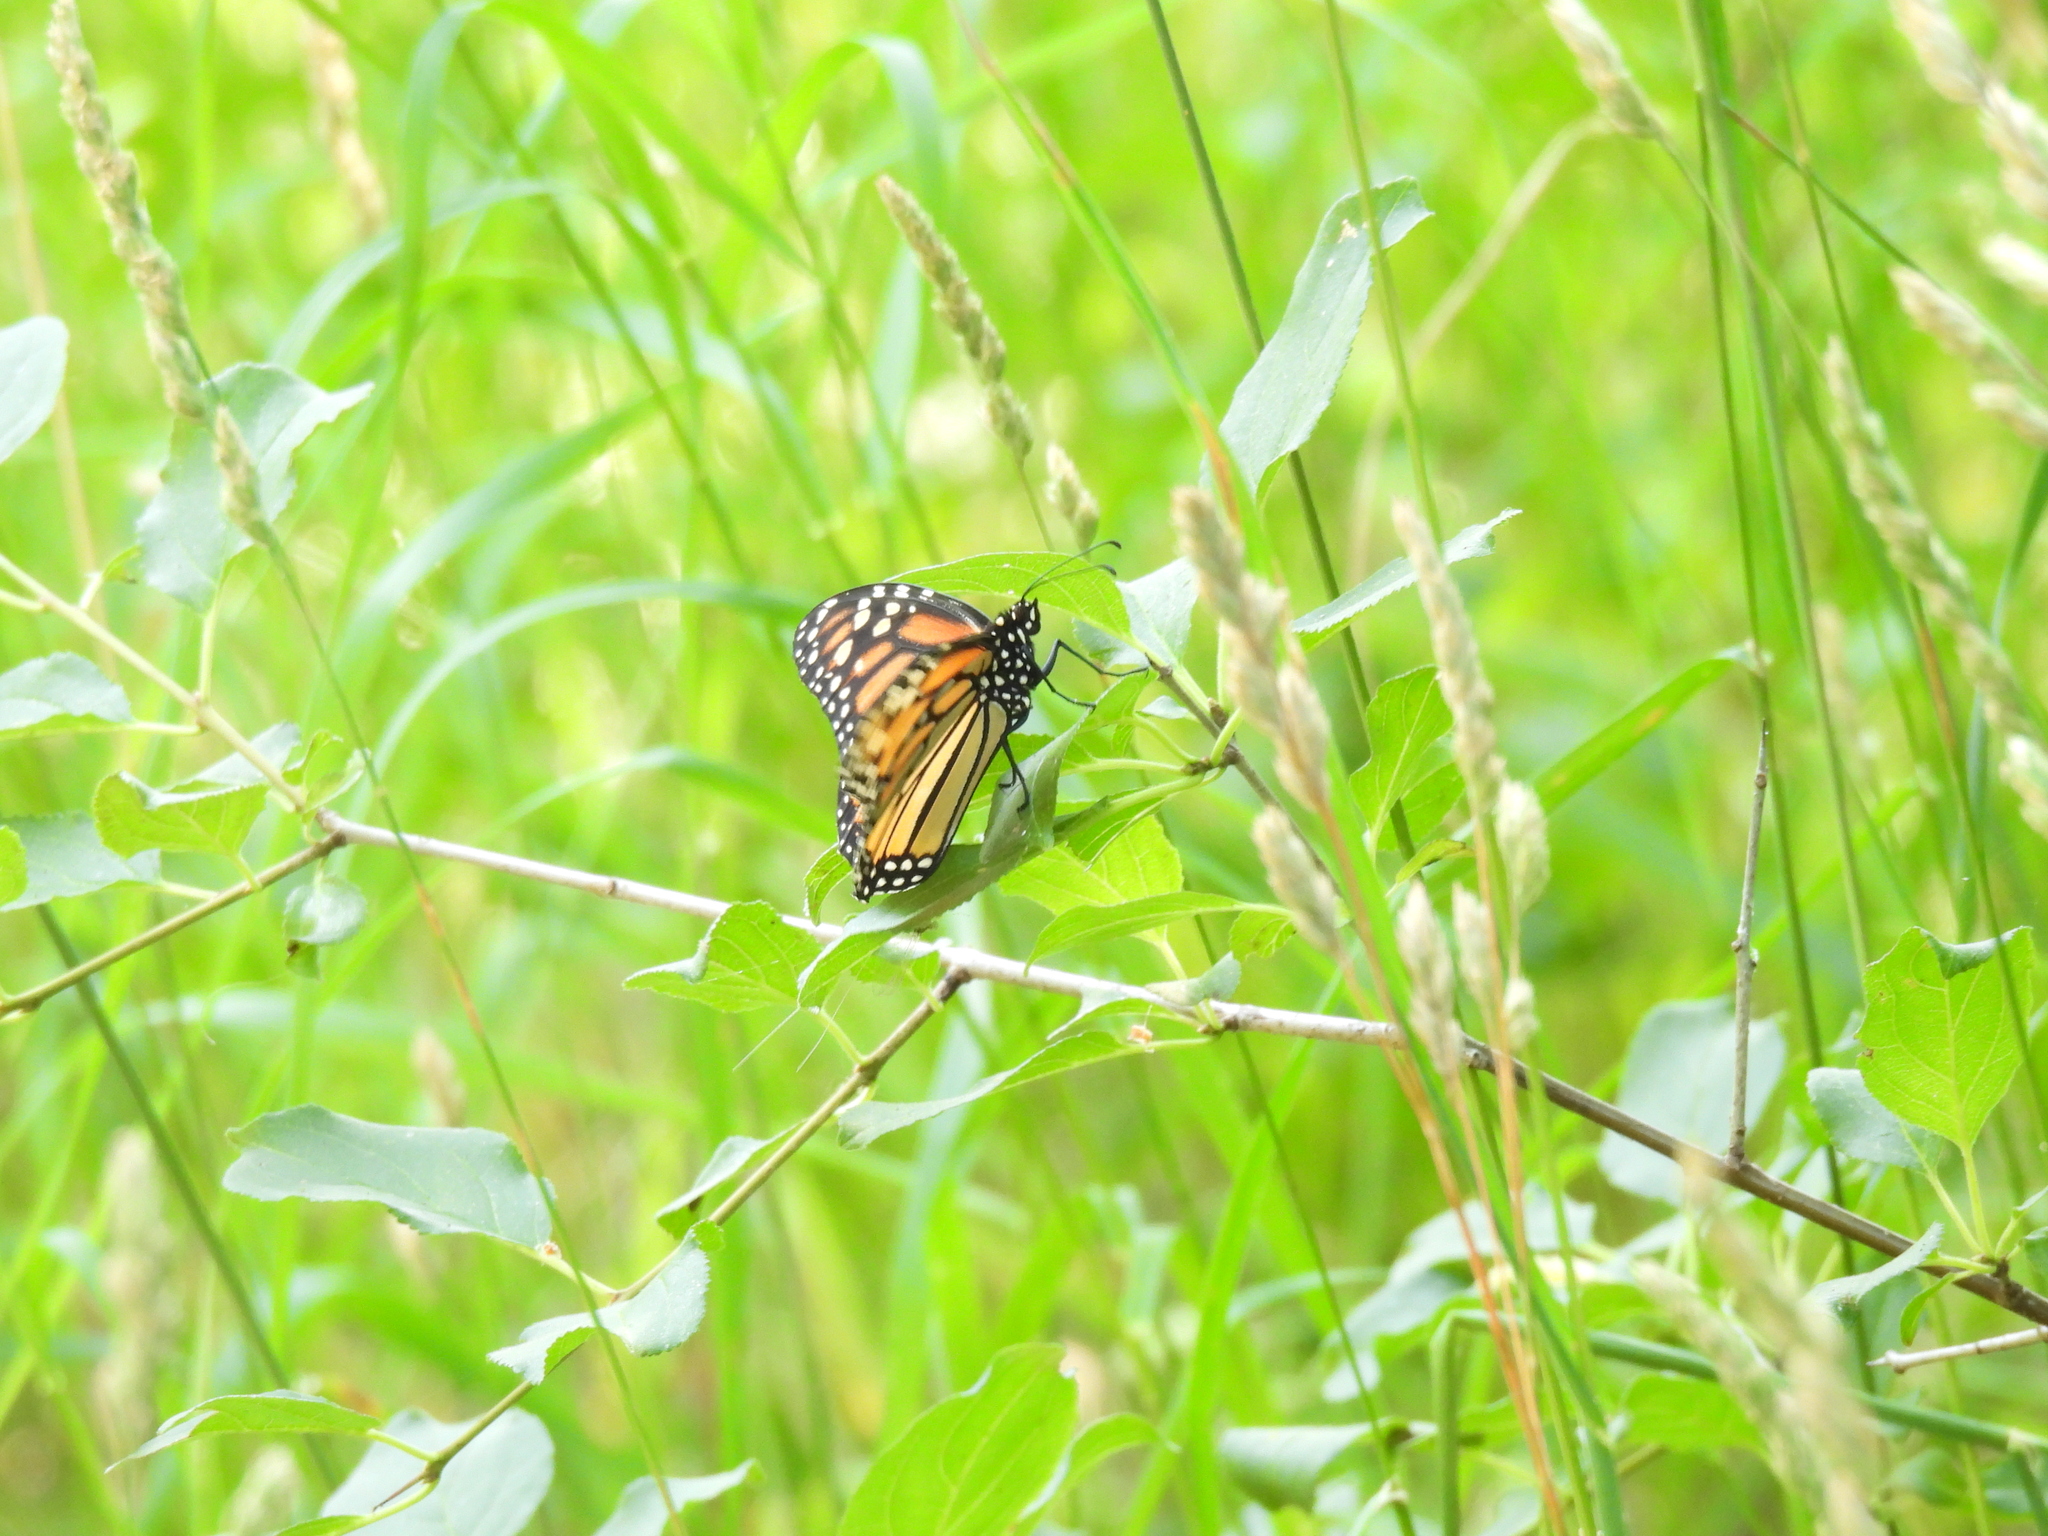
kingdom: Animalia
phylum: Arthropoda
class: Insecta
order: Lepidoptera
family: Nymphalidae
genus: Danaus
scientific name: Danaus plexippus
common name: Monarch
